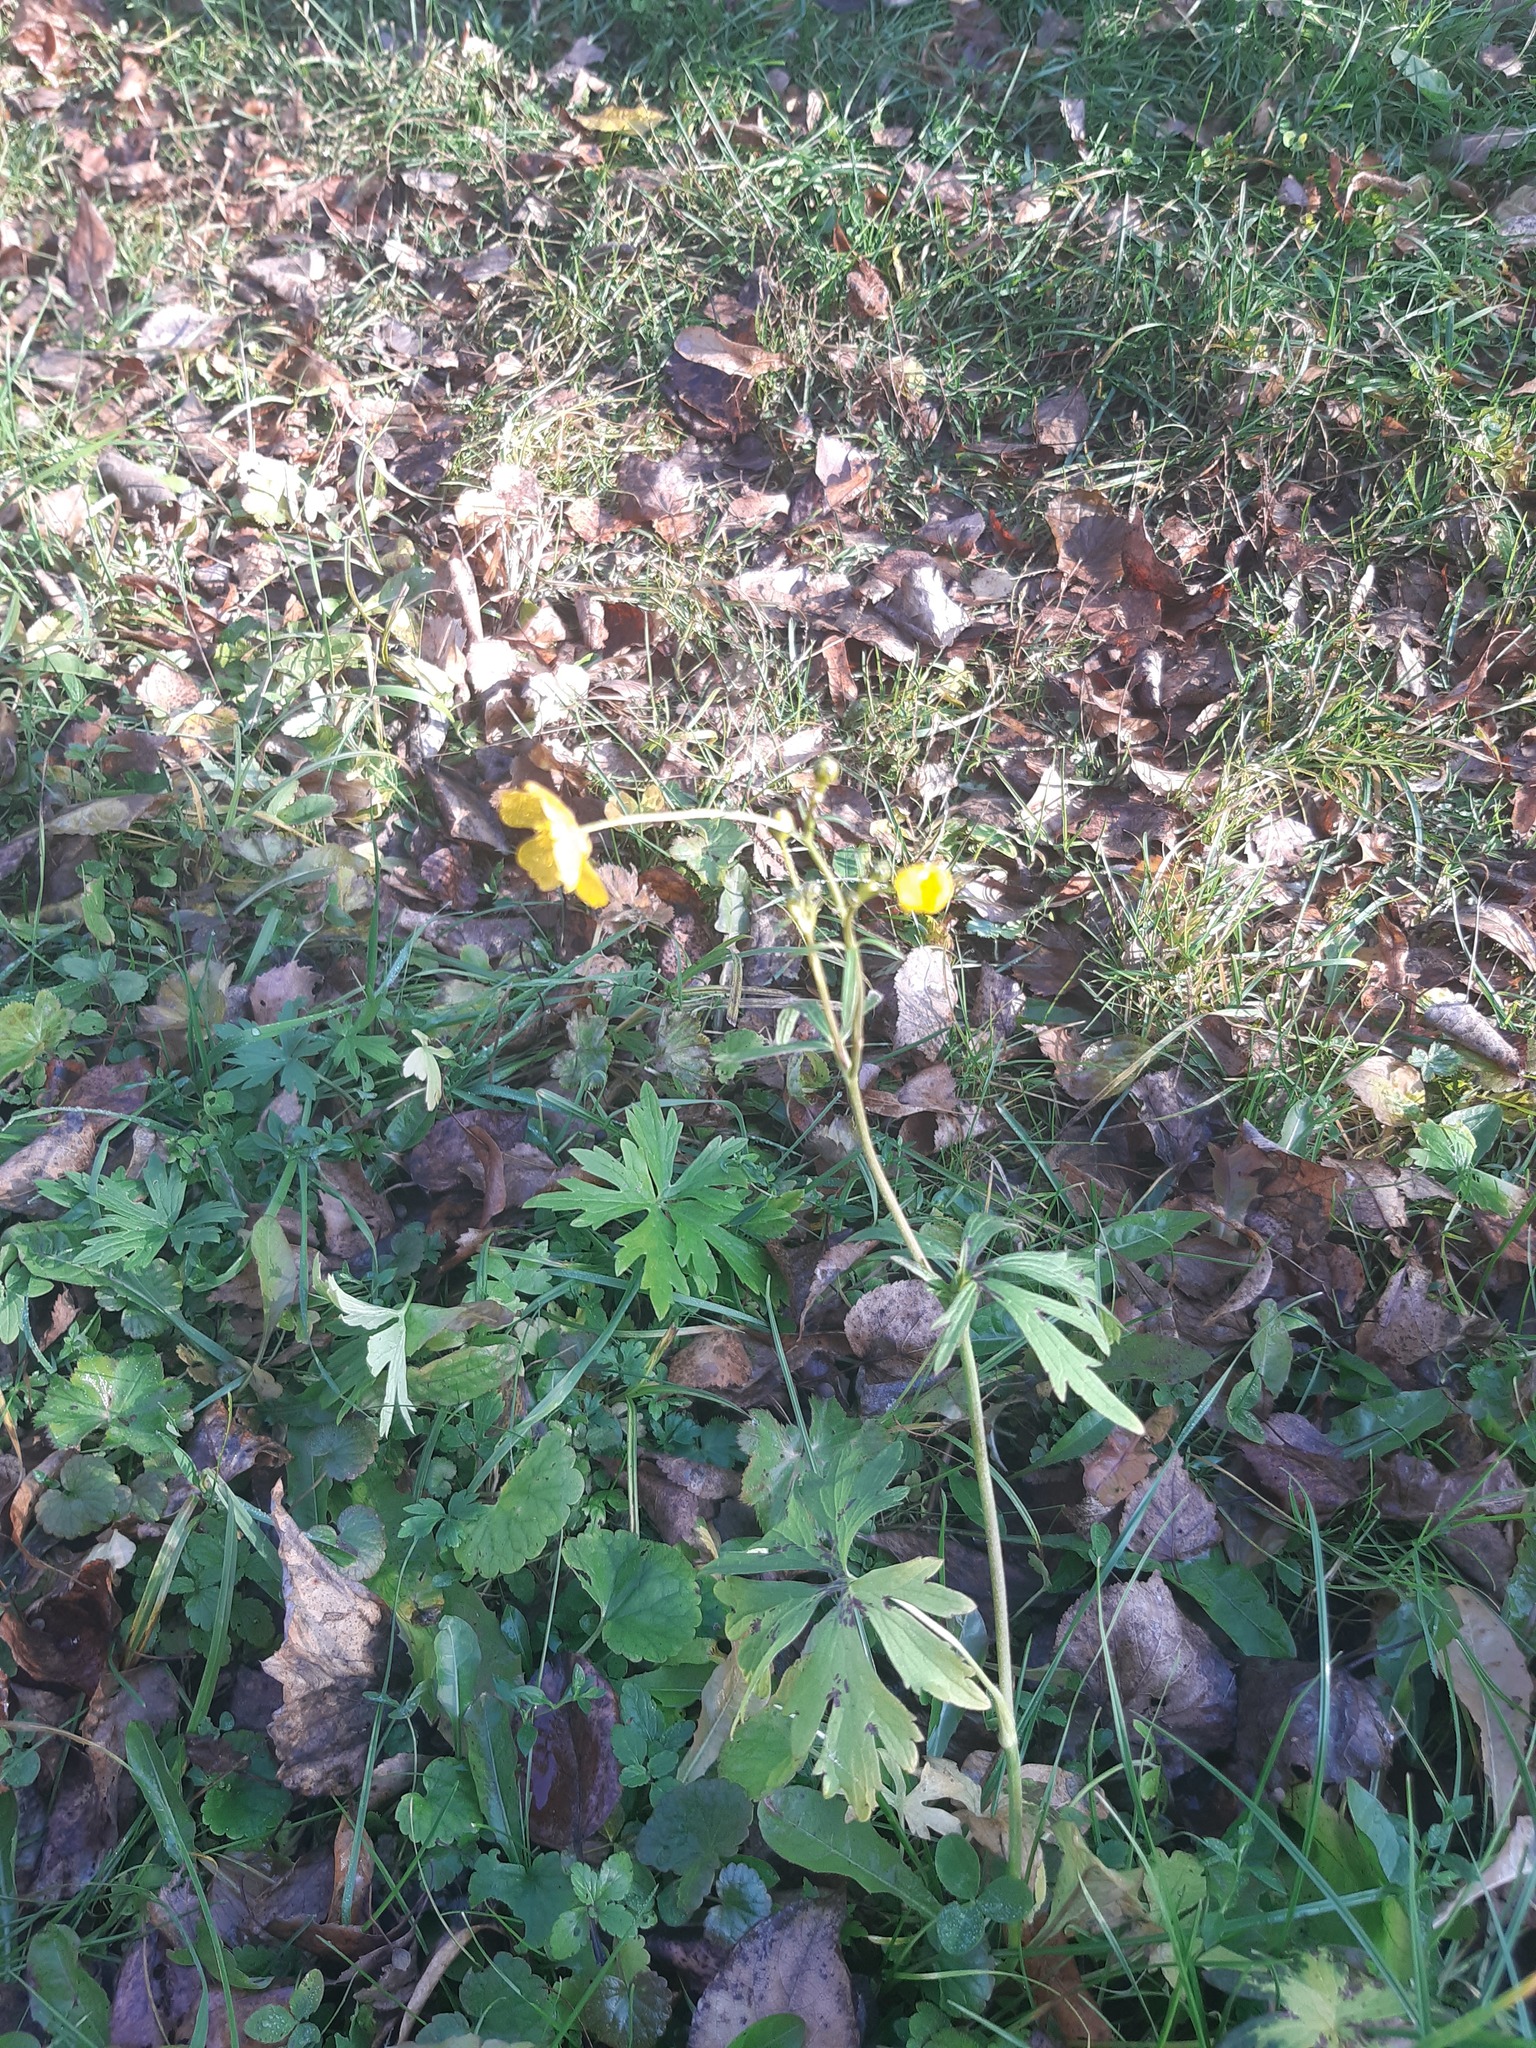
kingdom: Plantae
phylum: Tracheophyta
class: Magnoliopsida
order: Ranunculales
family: Ranunculaceae
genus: Ranunculus
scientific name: Ranunculus acris
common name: Meadow buttercup
